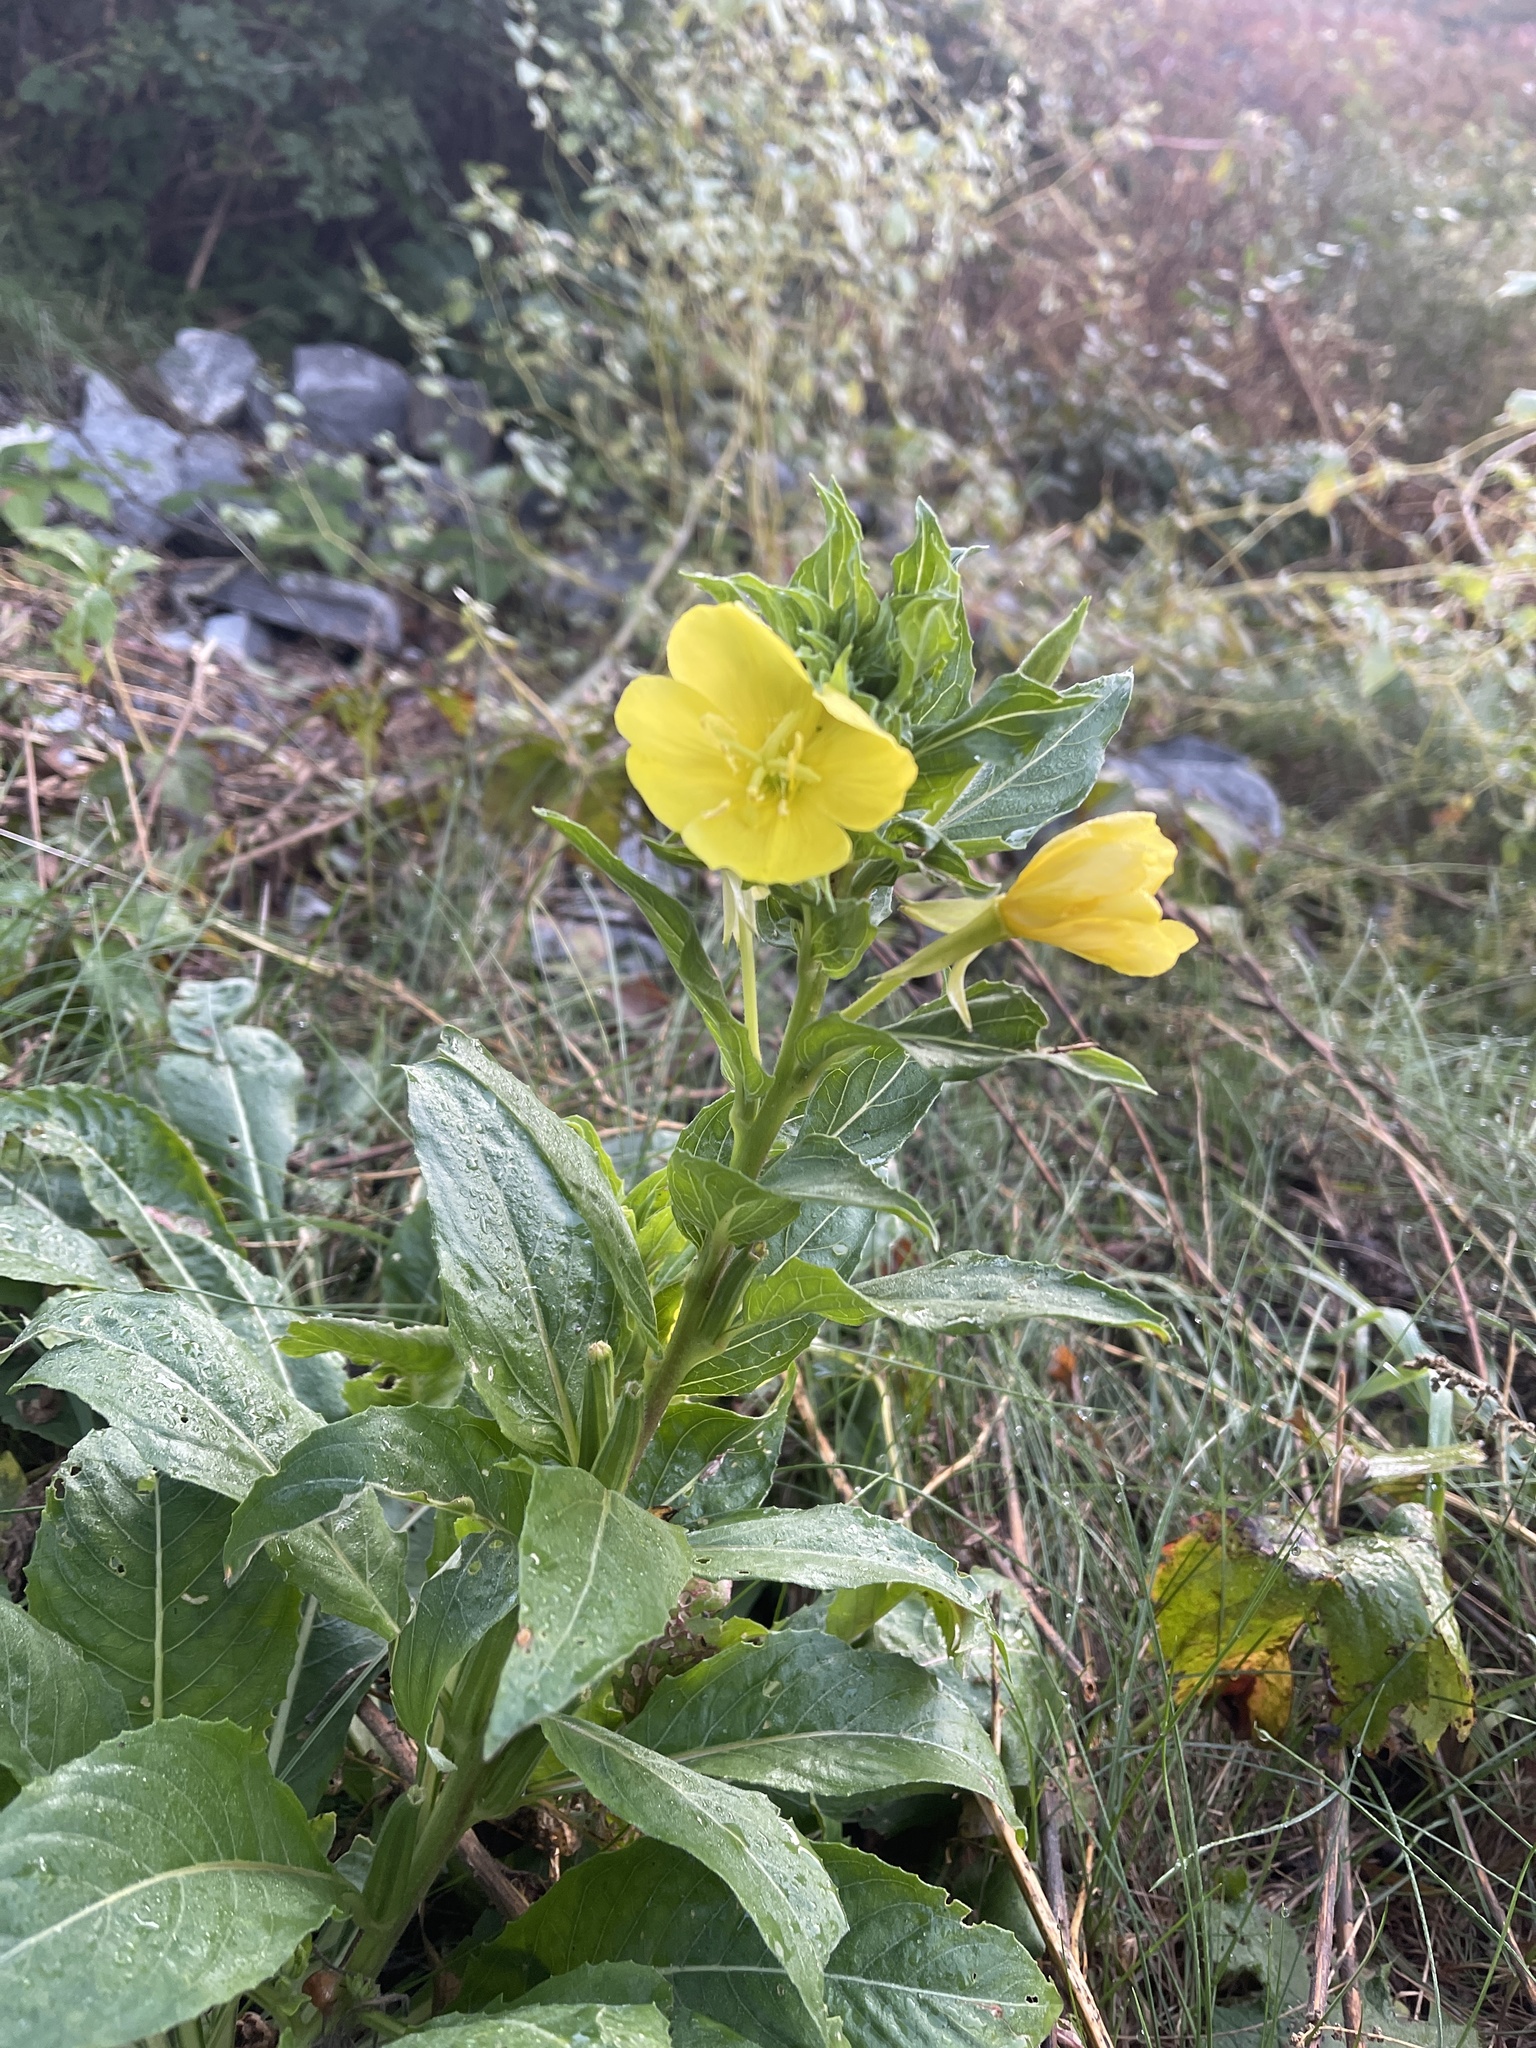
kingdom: Plantae
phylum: Tracheophyta
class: Magnoliopsida
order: Myrtales
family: Onagraceae
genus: Oenothera
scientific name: Oenothera parviflora
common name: Least evening-primrose
